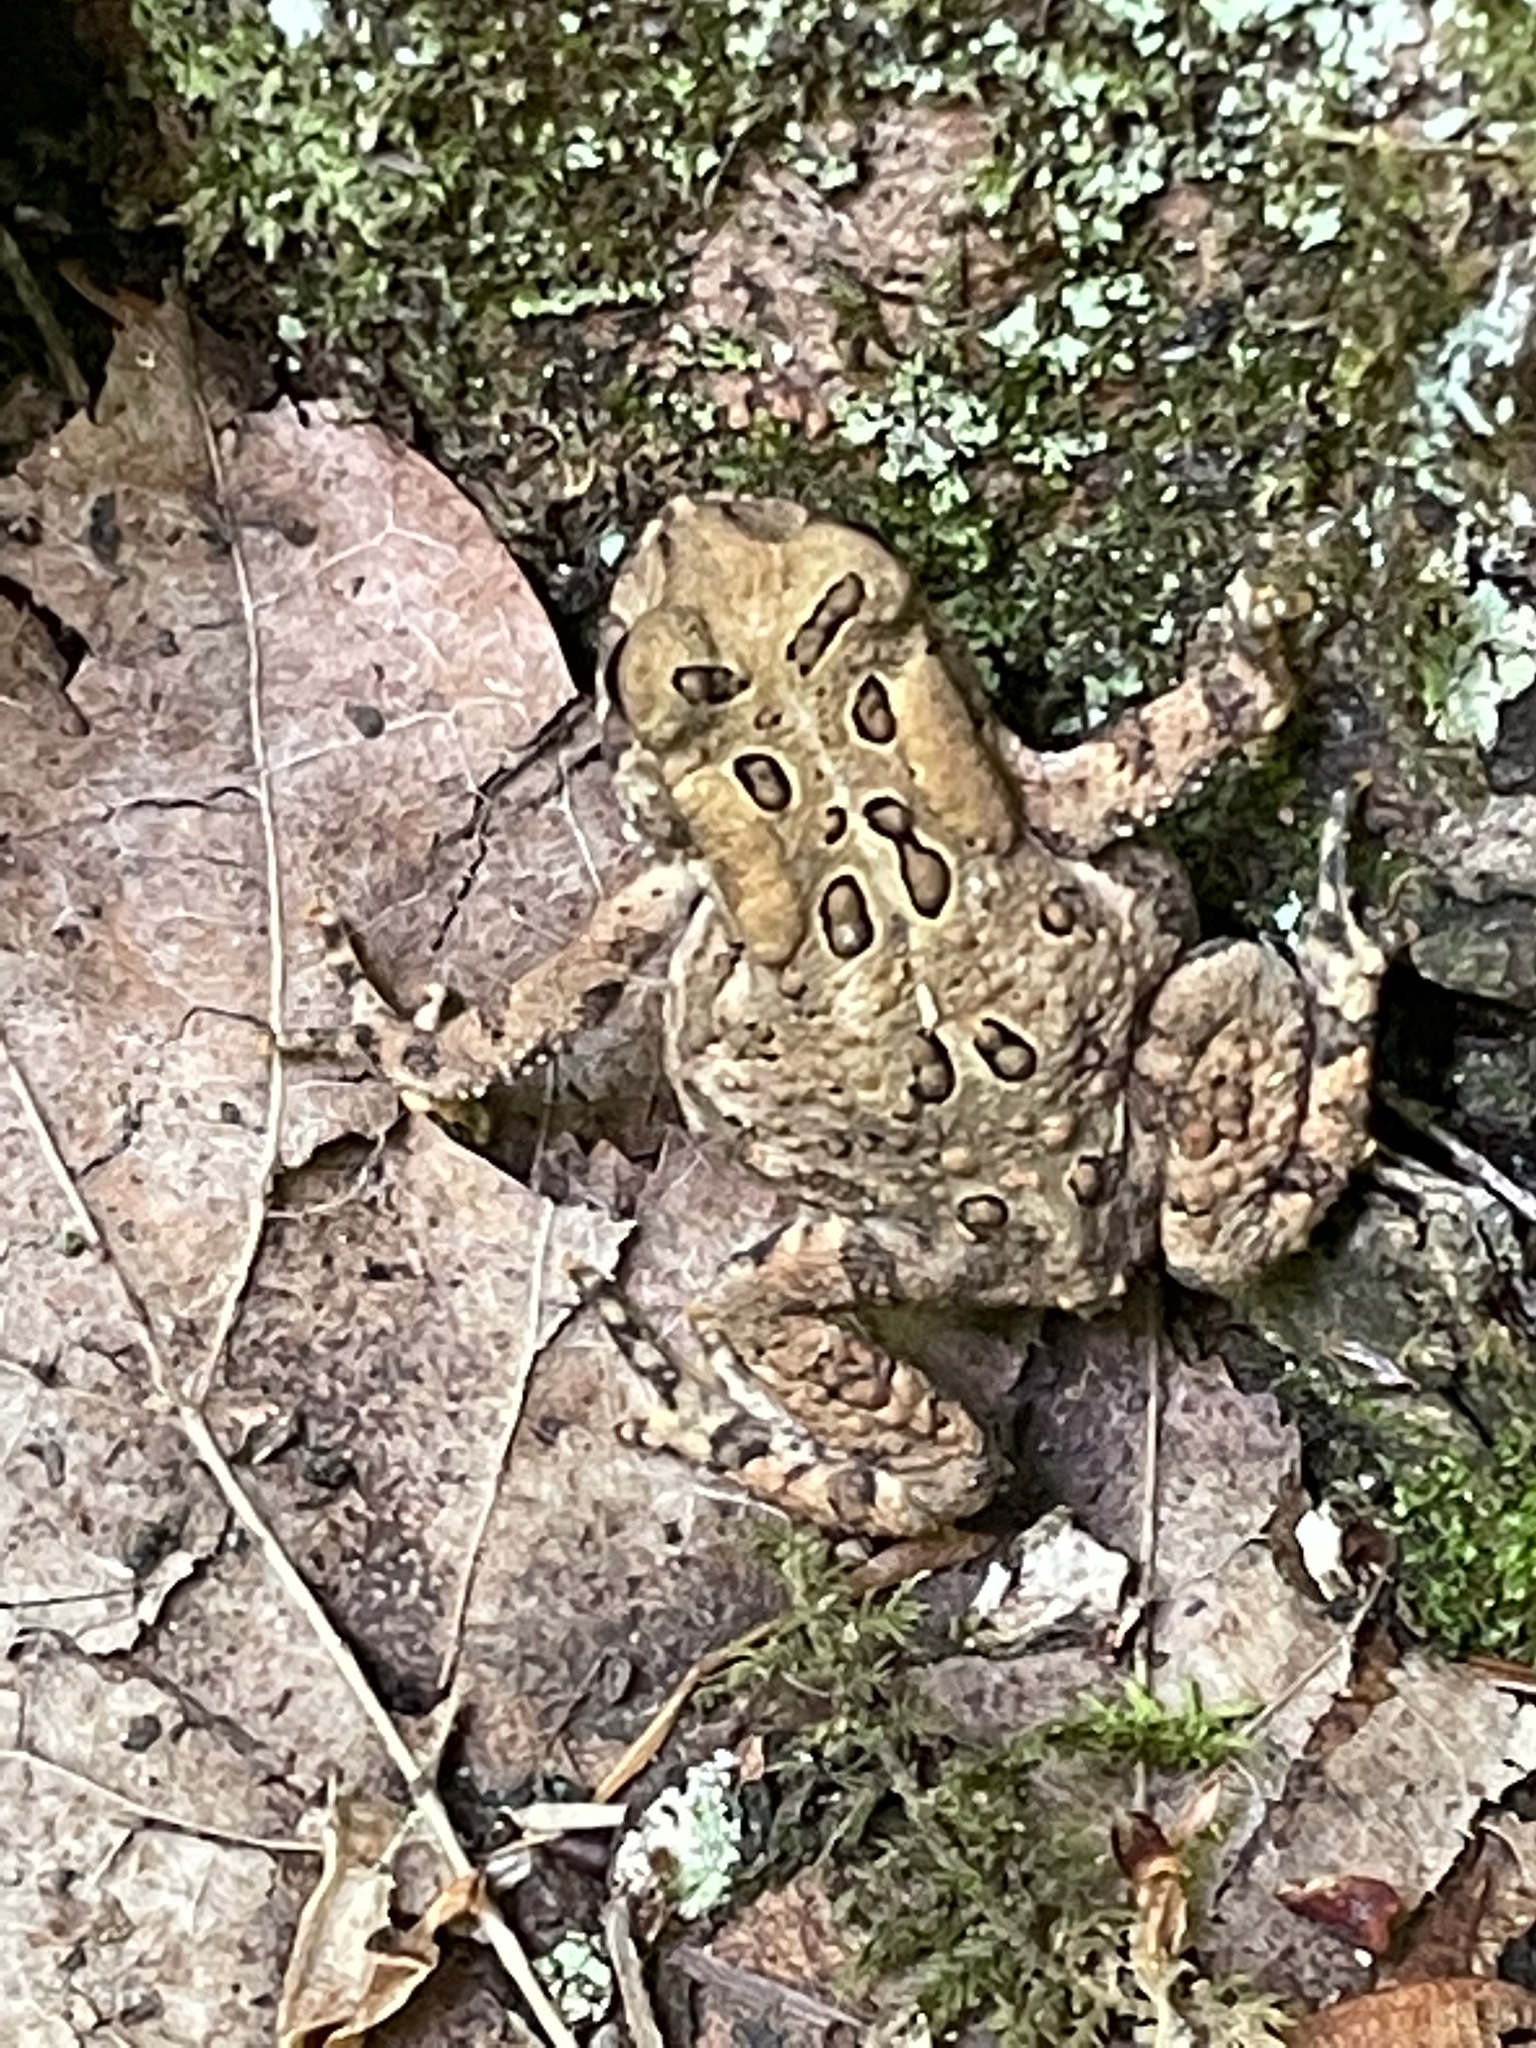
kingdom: Animalia
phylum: Chordata
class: Amphibia
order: Anura
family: Bufonidae
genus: Anaxyrus
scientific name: Anaxyrus americanus
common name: American toad
